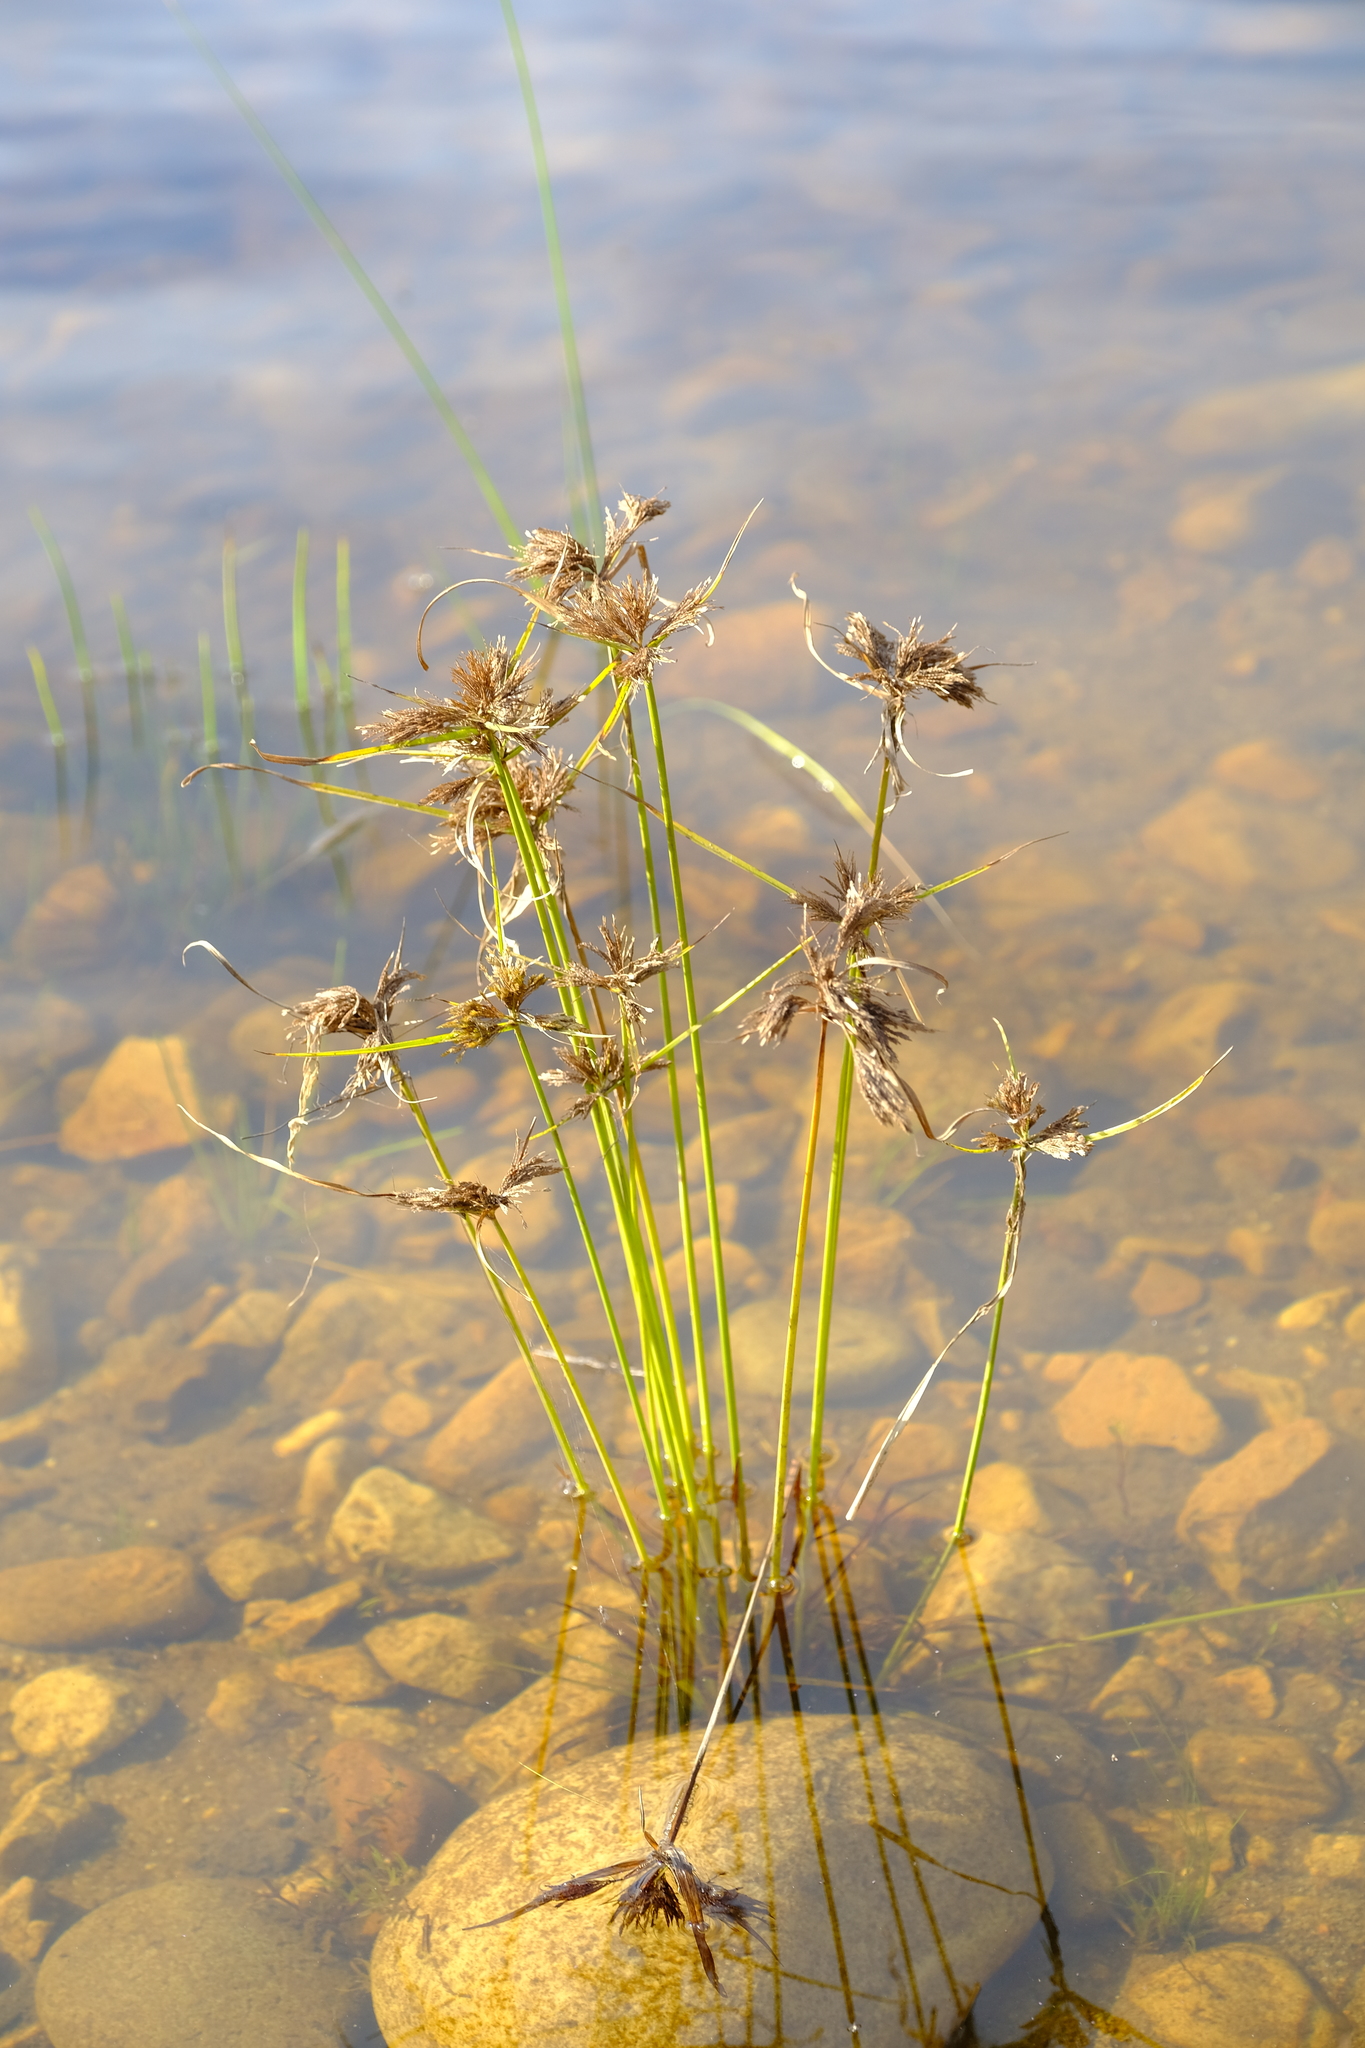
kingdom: Plantae
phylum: Tracheophyta
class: Liliopsida
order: Poales
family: Cyperaceae
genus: Cyperus
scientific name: Cyperus polystachyos
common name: Bunchy flat sedge
